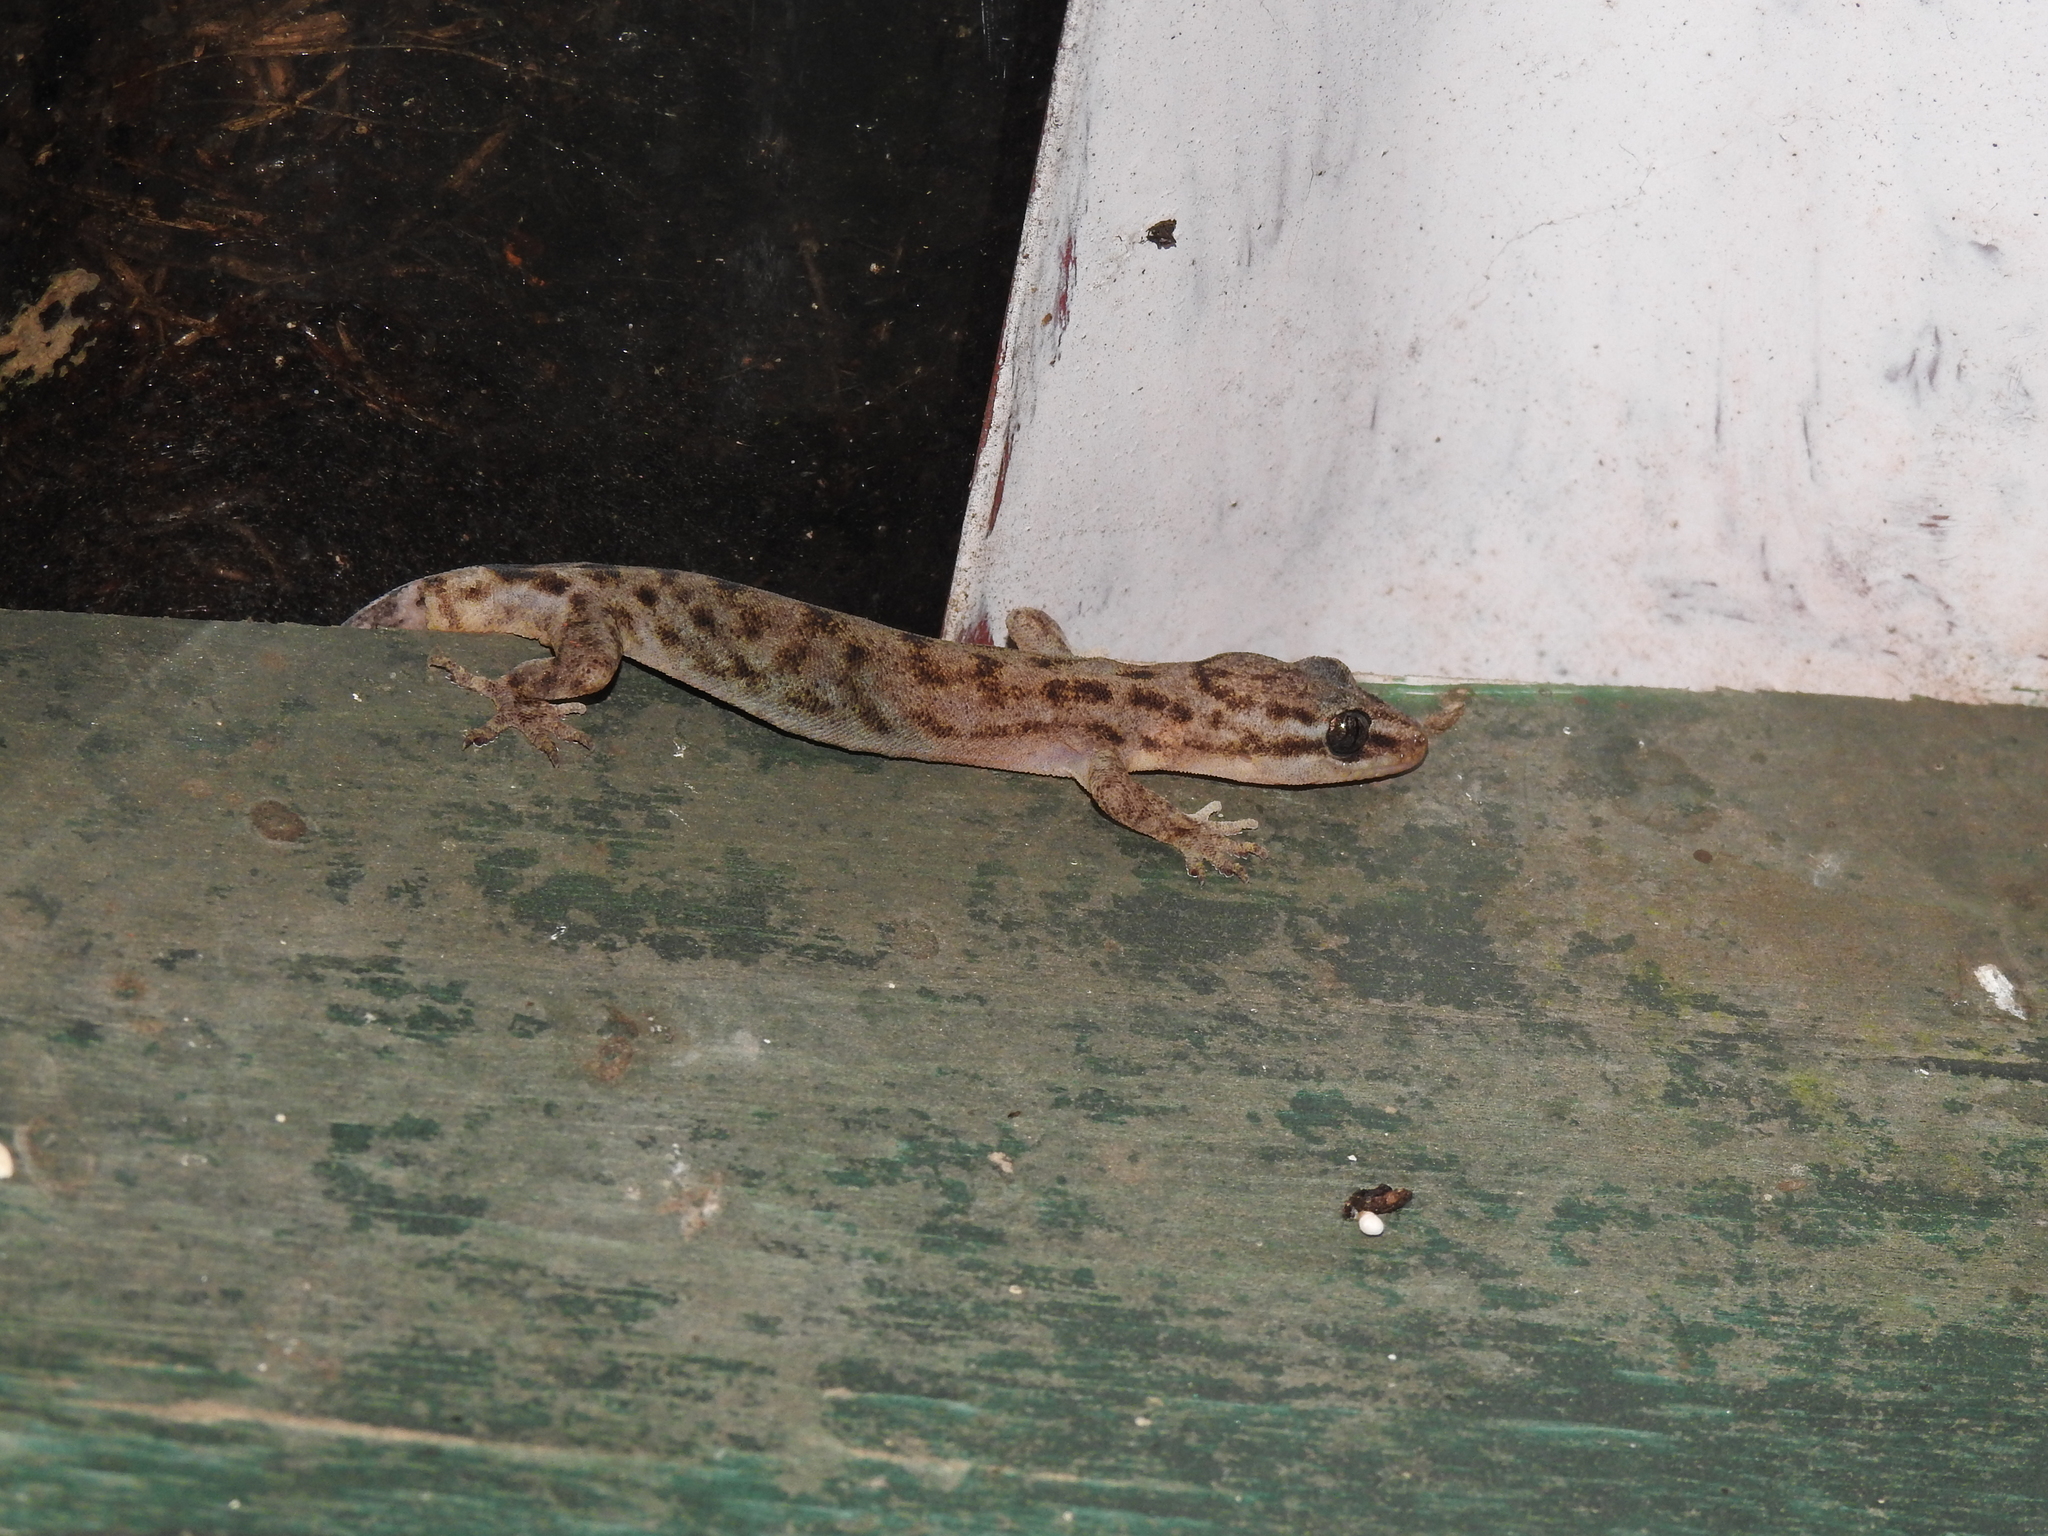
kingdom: Animalia
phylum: Chordata
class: Squamata
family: Gekkonidae
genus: Dravidogecko
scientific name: Dravidogecko tholpalli
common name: Kodaikanal dravidogecko
